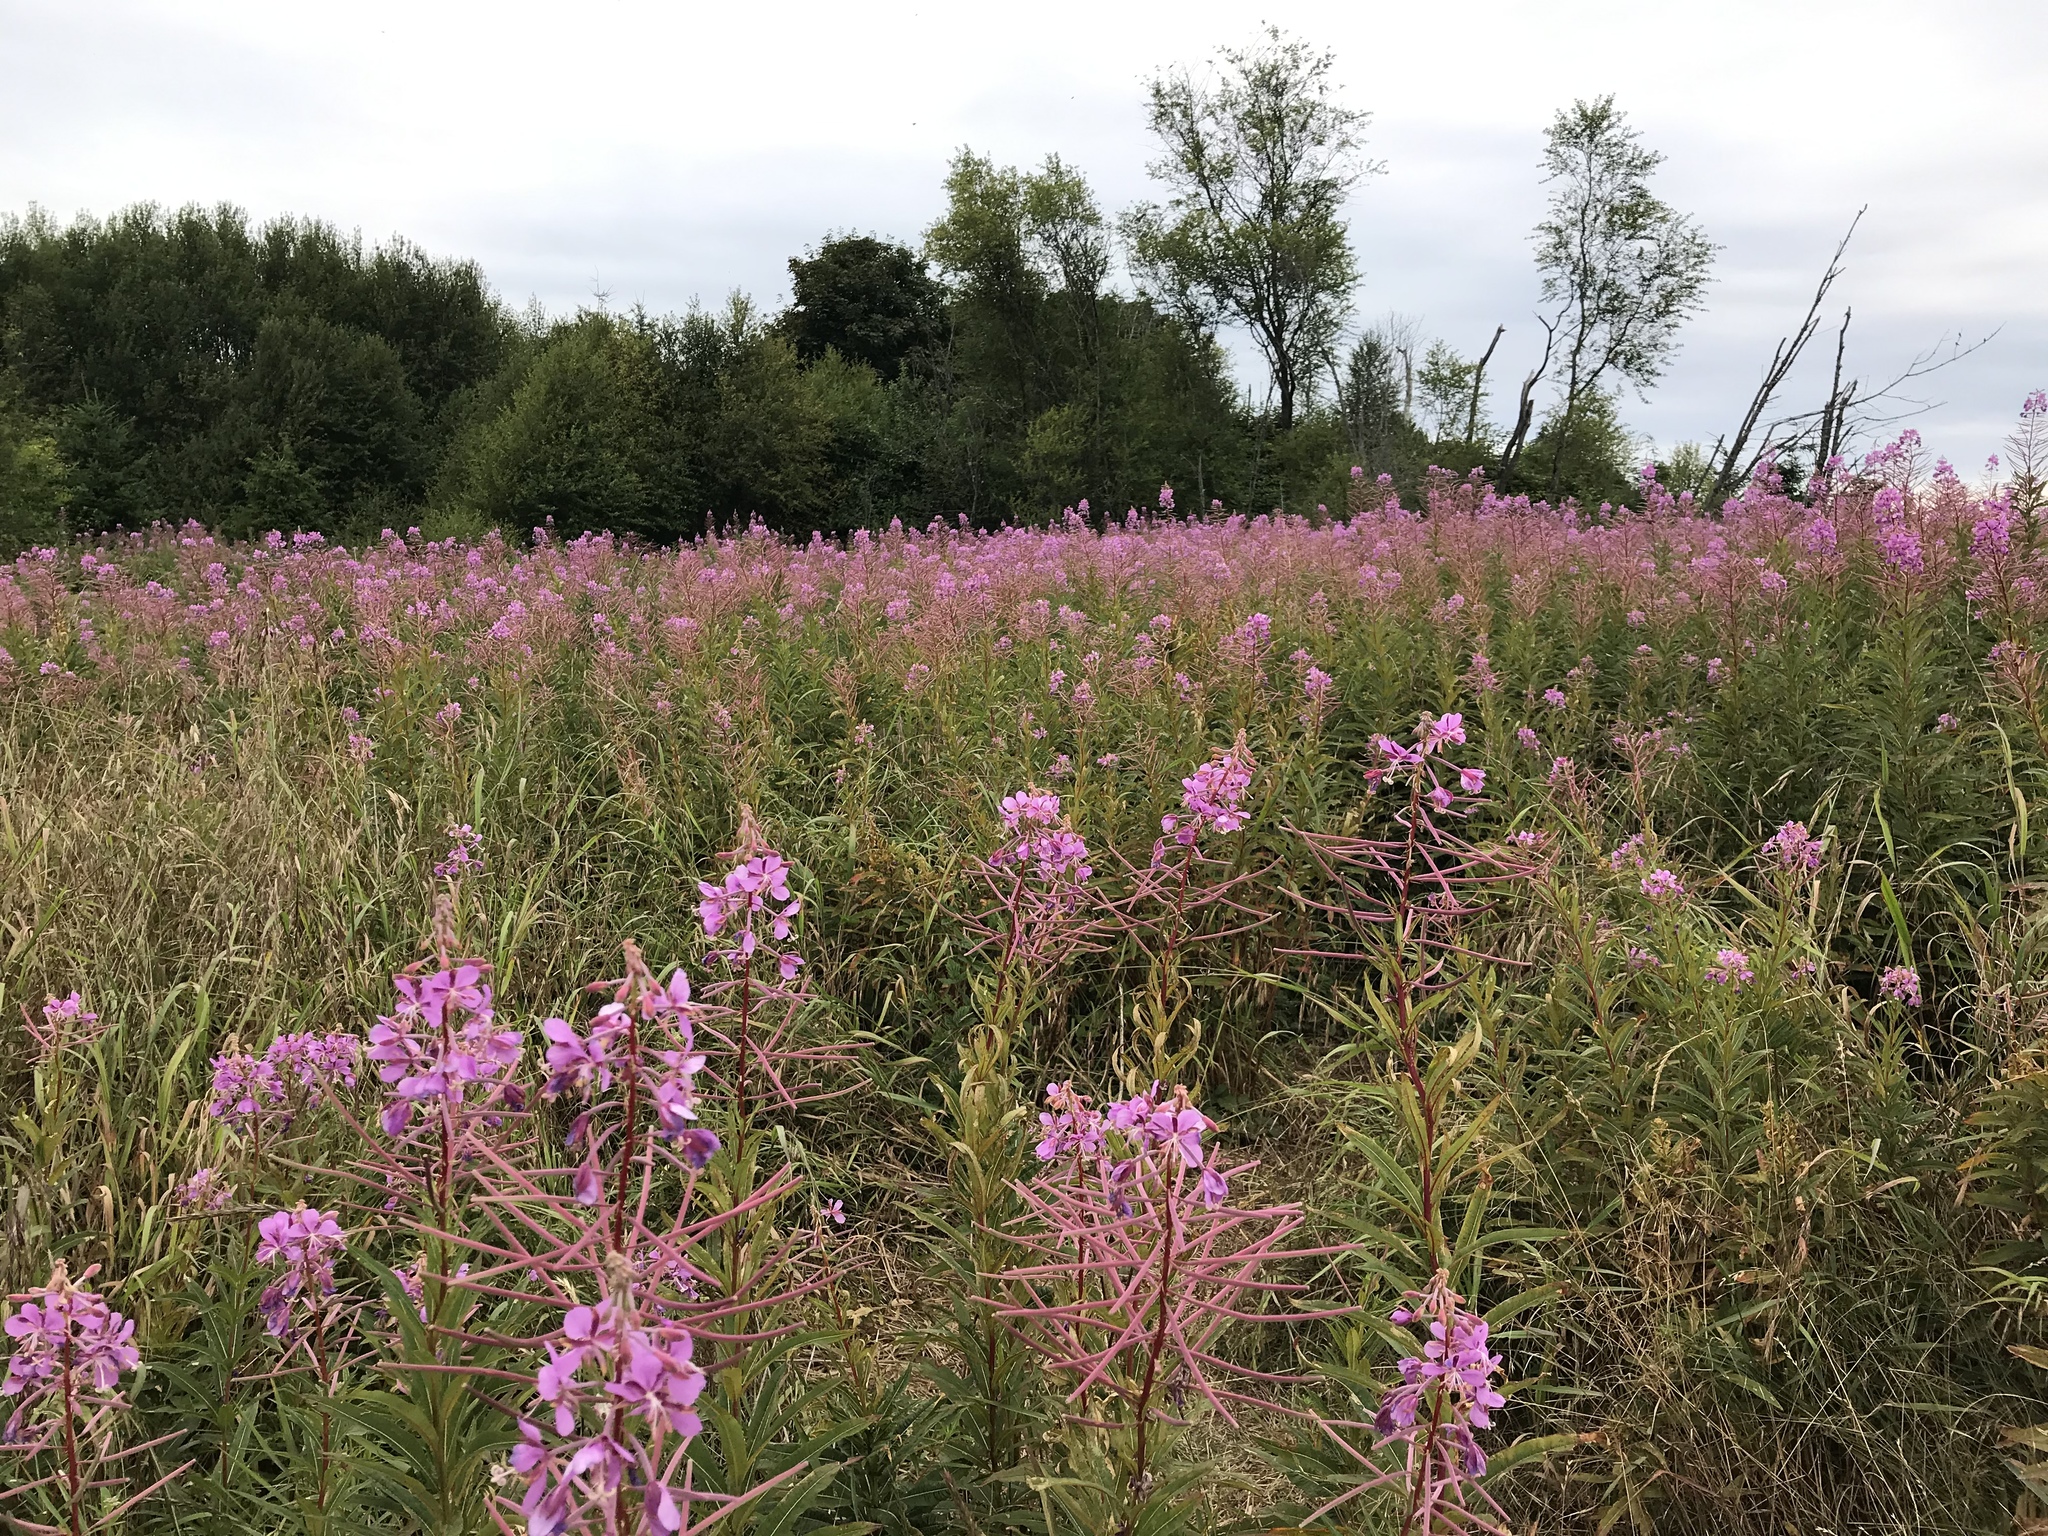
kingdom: Plantae
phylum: Tracheophyta
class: Magnoliopsida
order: Myrtales
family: Onagraceae
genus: Chamaenerion
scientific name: Chamaenerion angustifolium
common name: Fireweed
